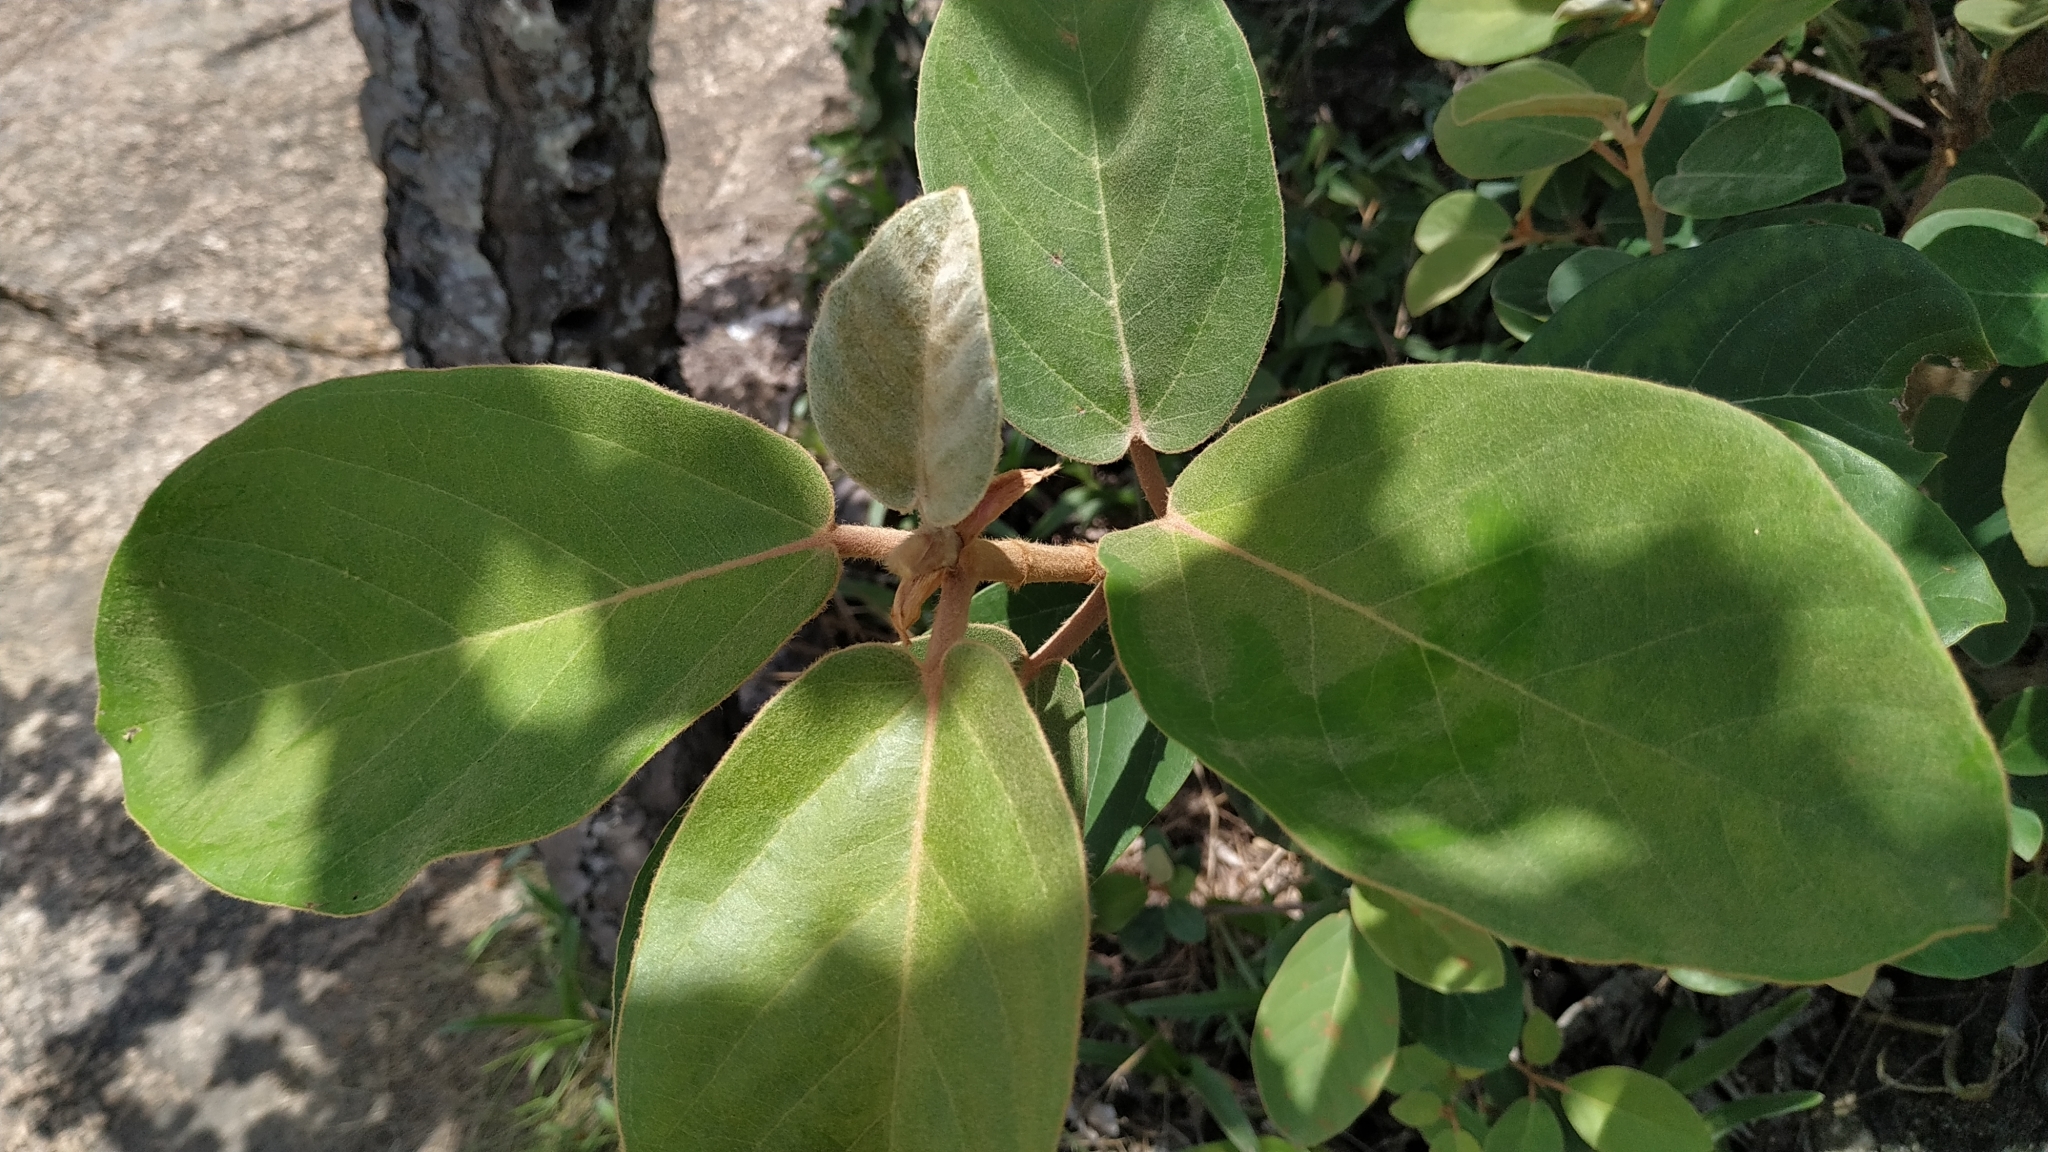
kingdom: Plantae
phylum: Tracheophyta
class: Magnoliopsida
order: Rosales
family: Moraceae
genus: Ficus
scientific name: Ficus mollis
